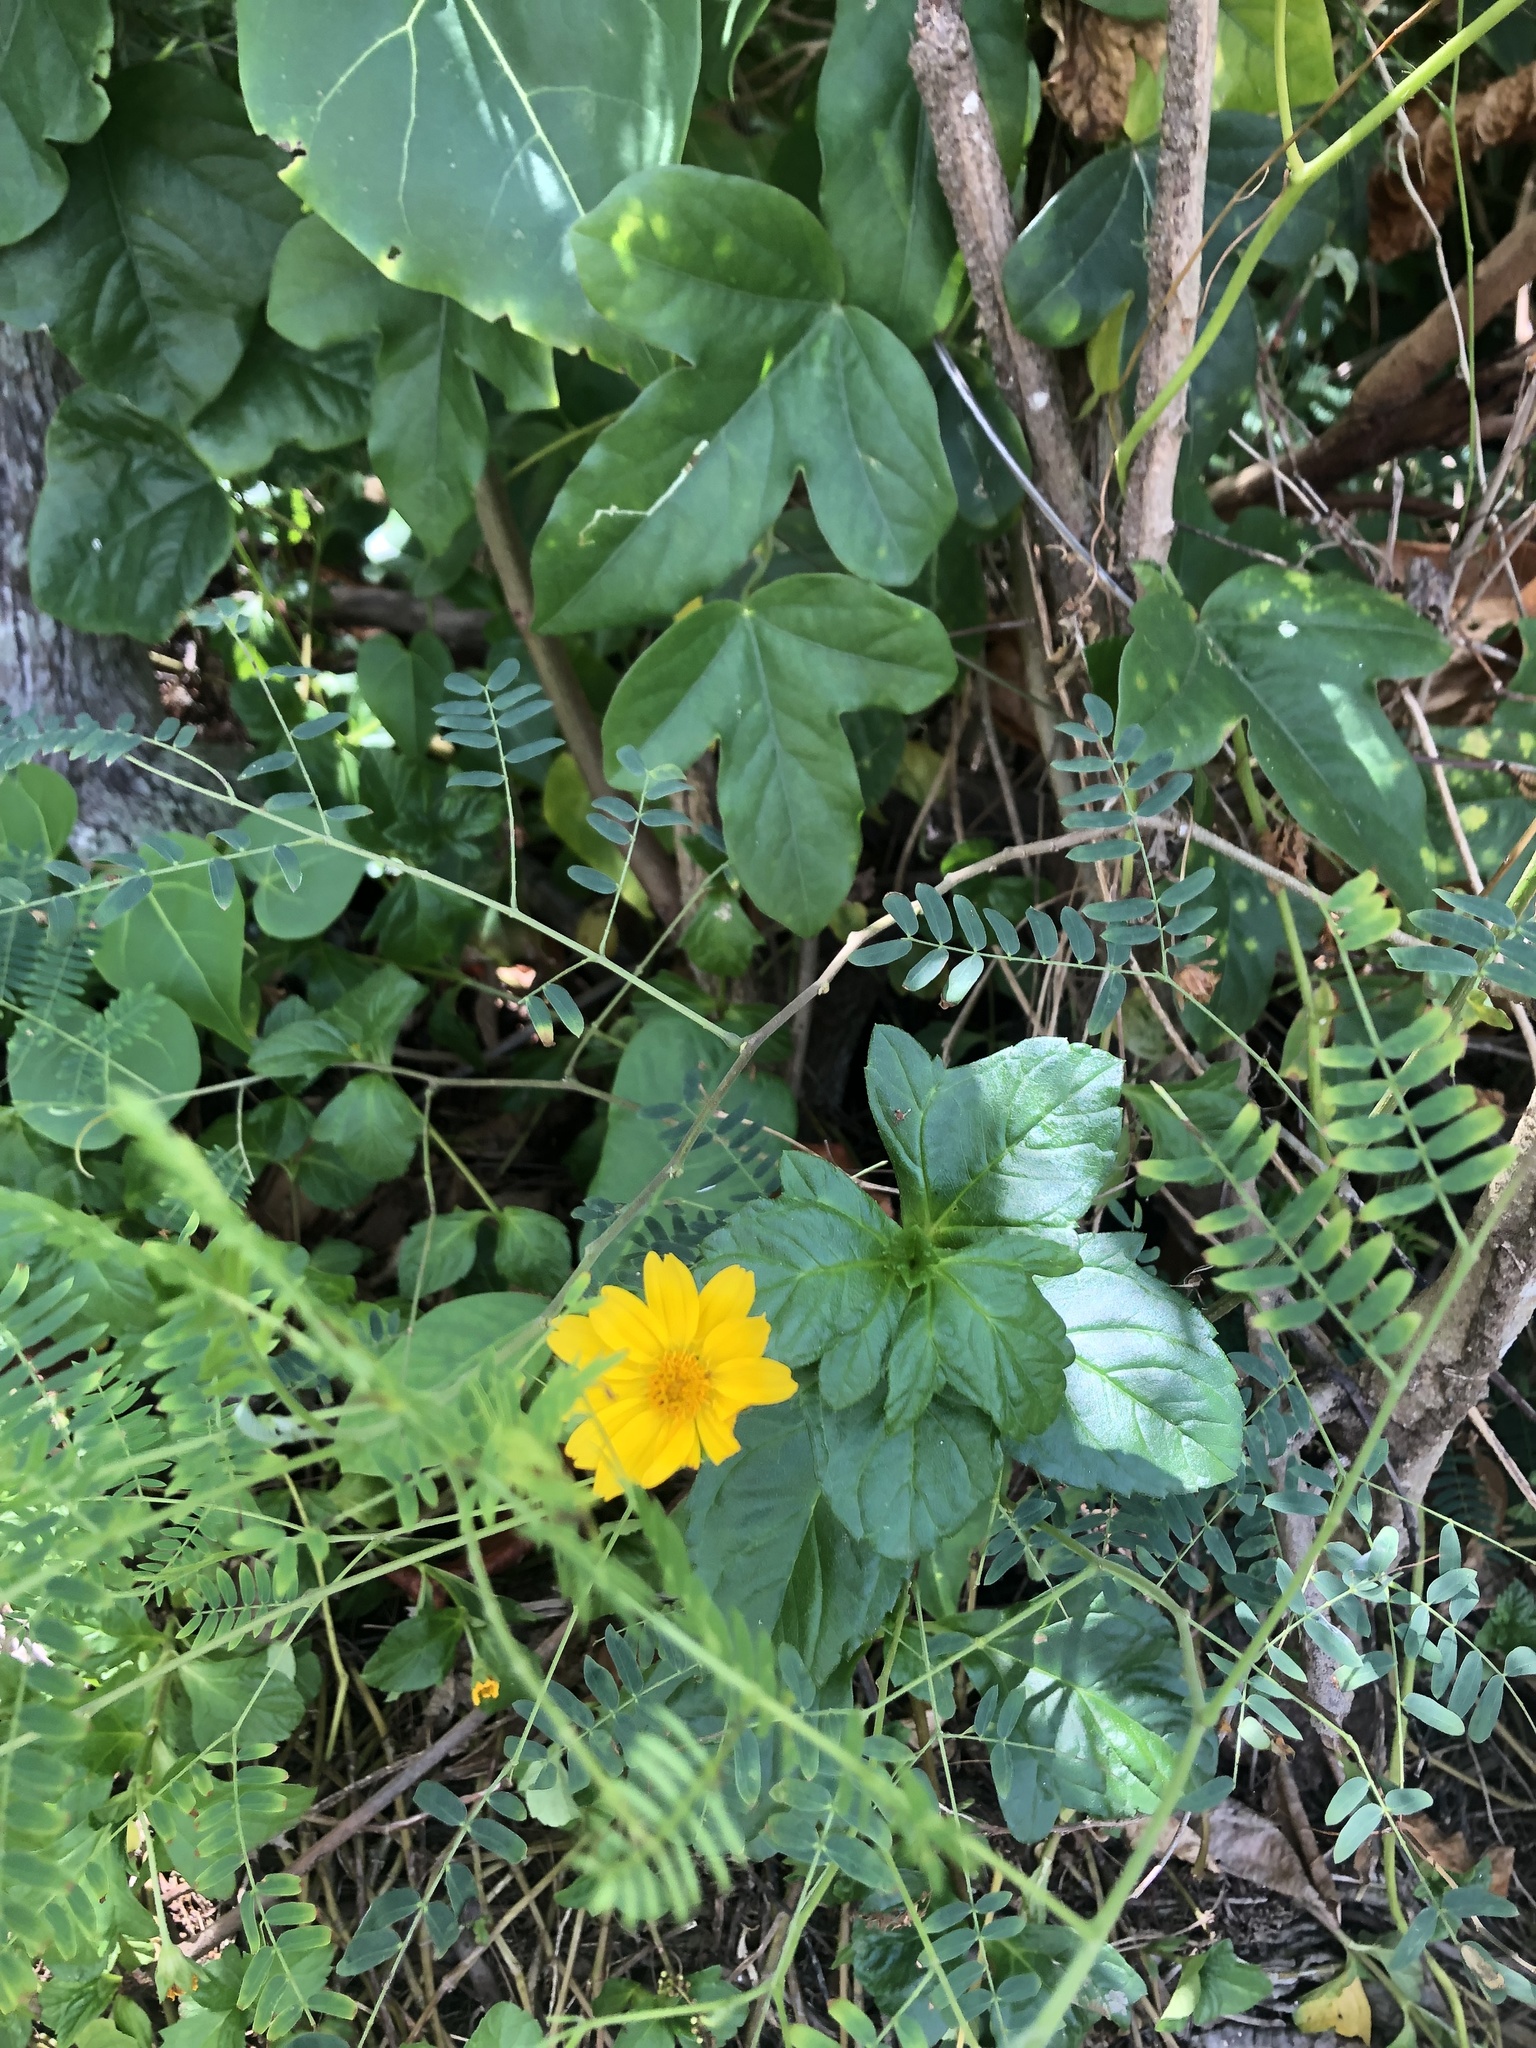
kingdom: Plantae
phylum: Tracheophyta
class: Magnoliopsida
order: Asterales
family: Asteraceae
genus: Sphagneticola
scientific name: Sphagneticola trilobata
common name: Bay biscayne creeping-oxeye
